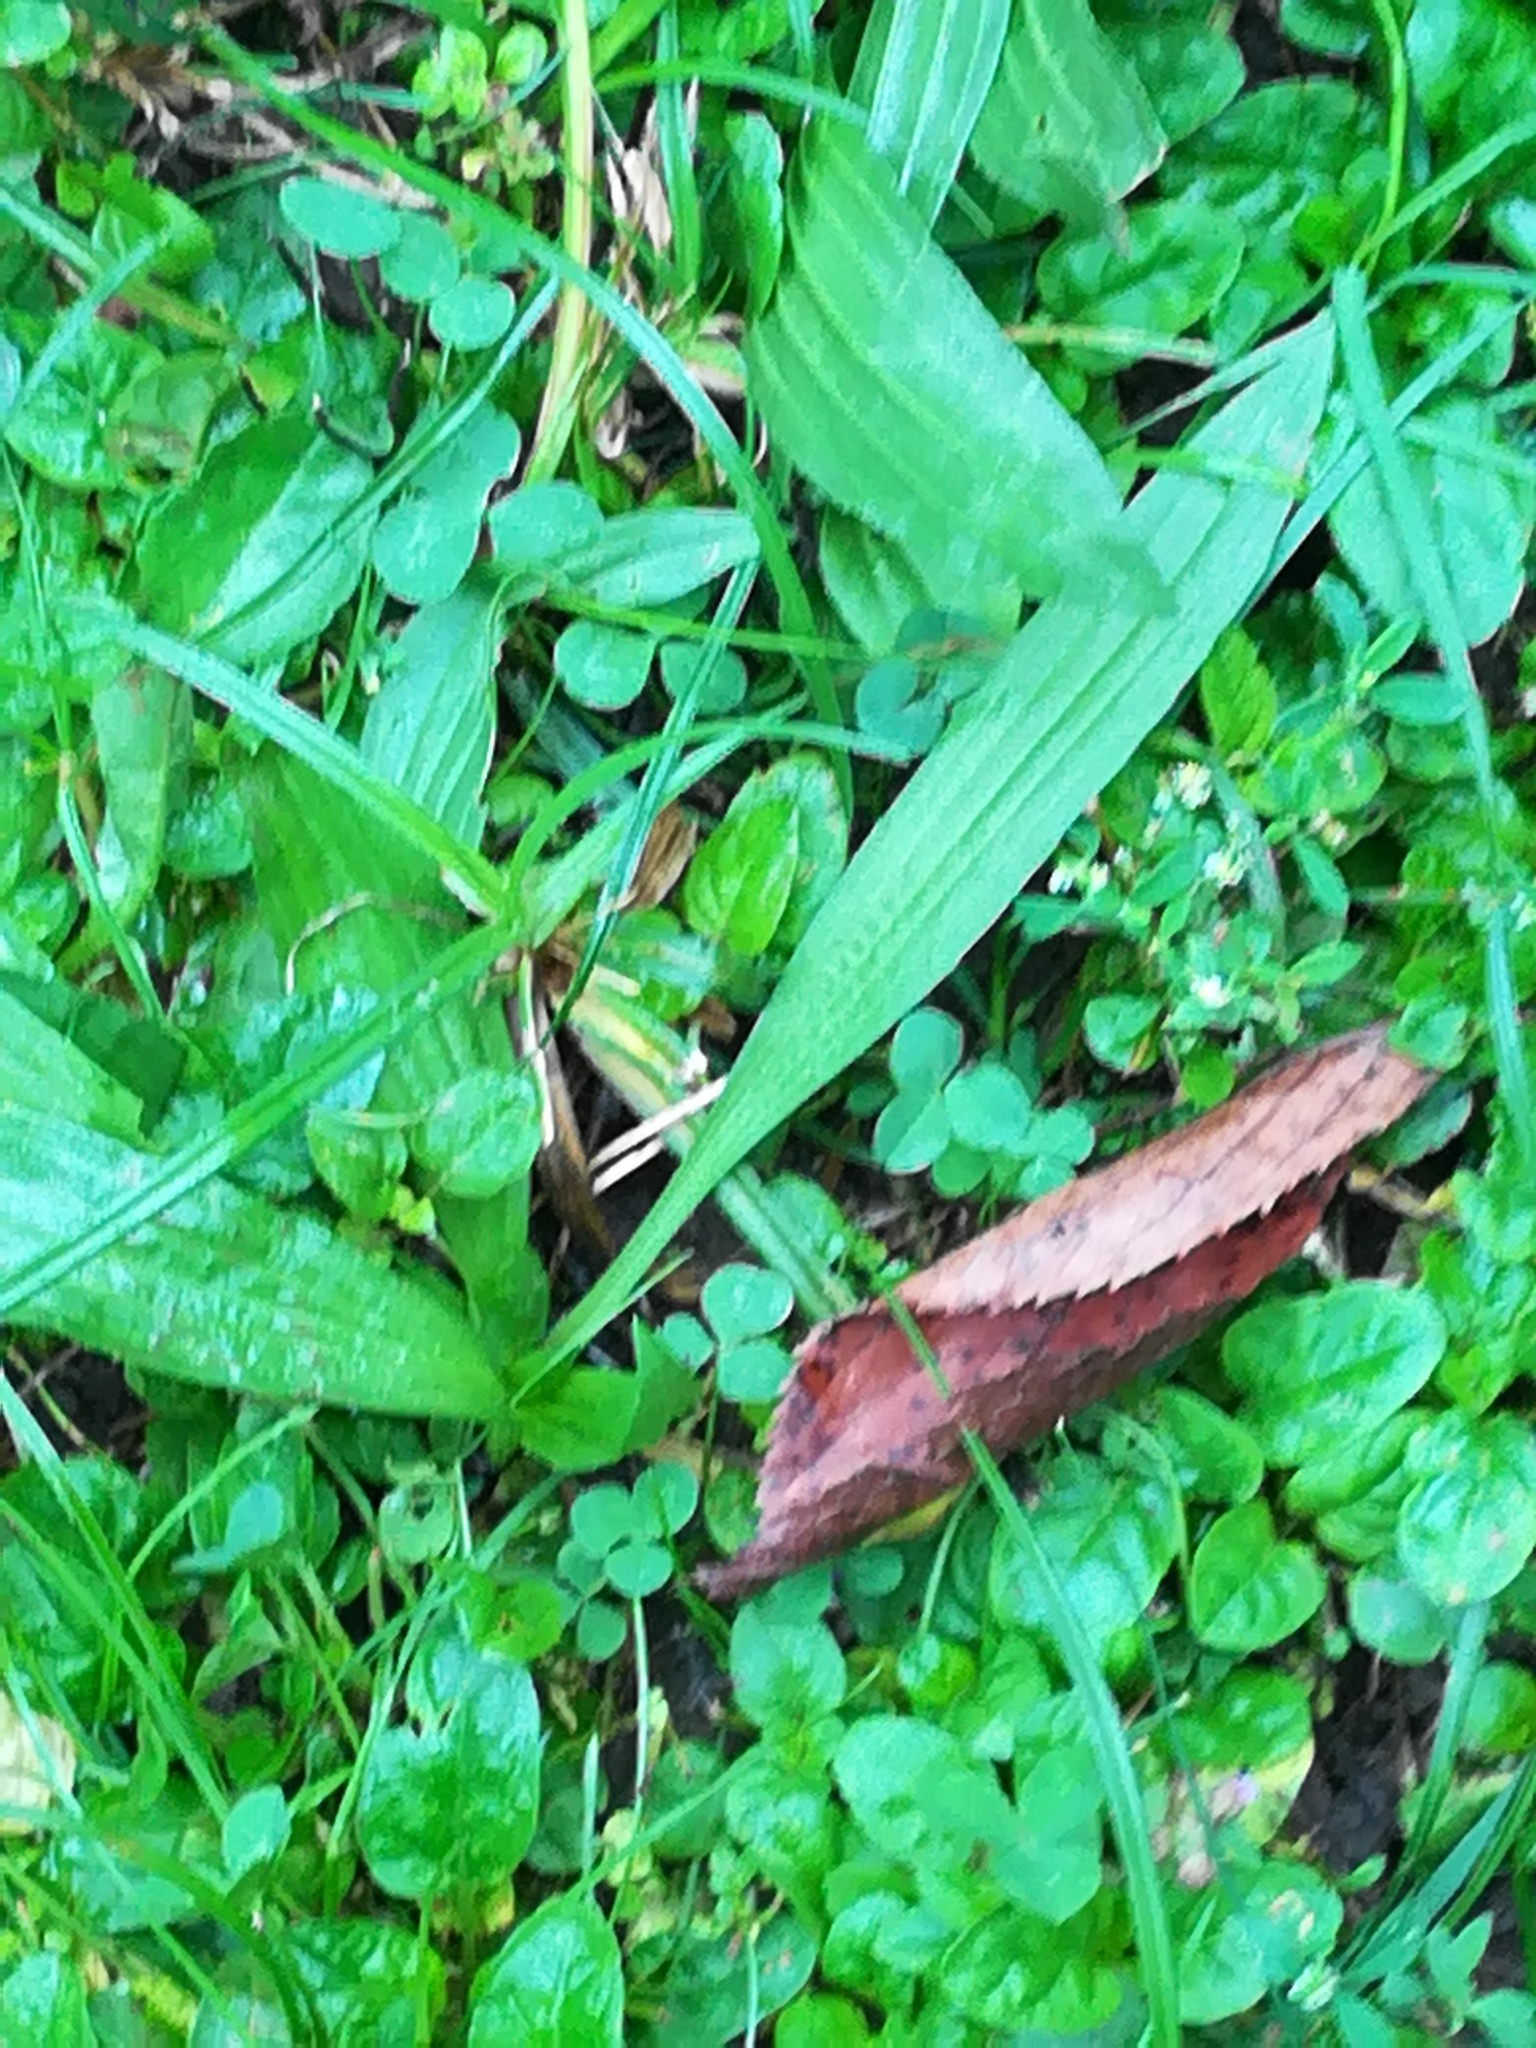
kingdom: Plantae
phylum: Tracheophyta
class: Magnoliopsida
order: Lamiales
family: Plantaginaceae
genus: Plantago
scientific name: Plantago lanceolata
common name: Ribwort plantain
